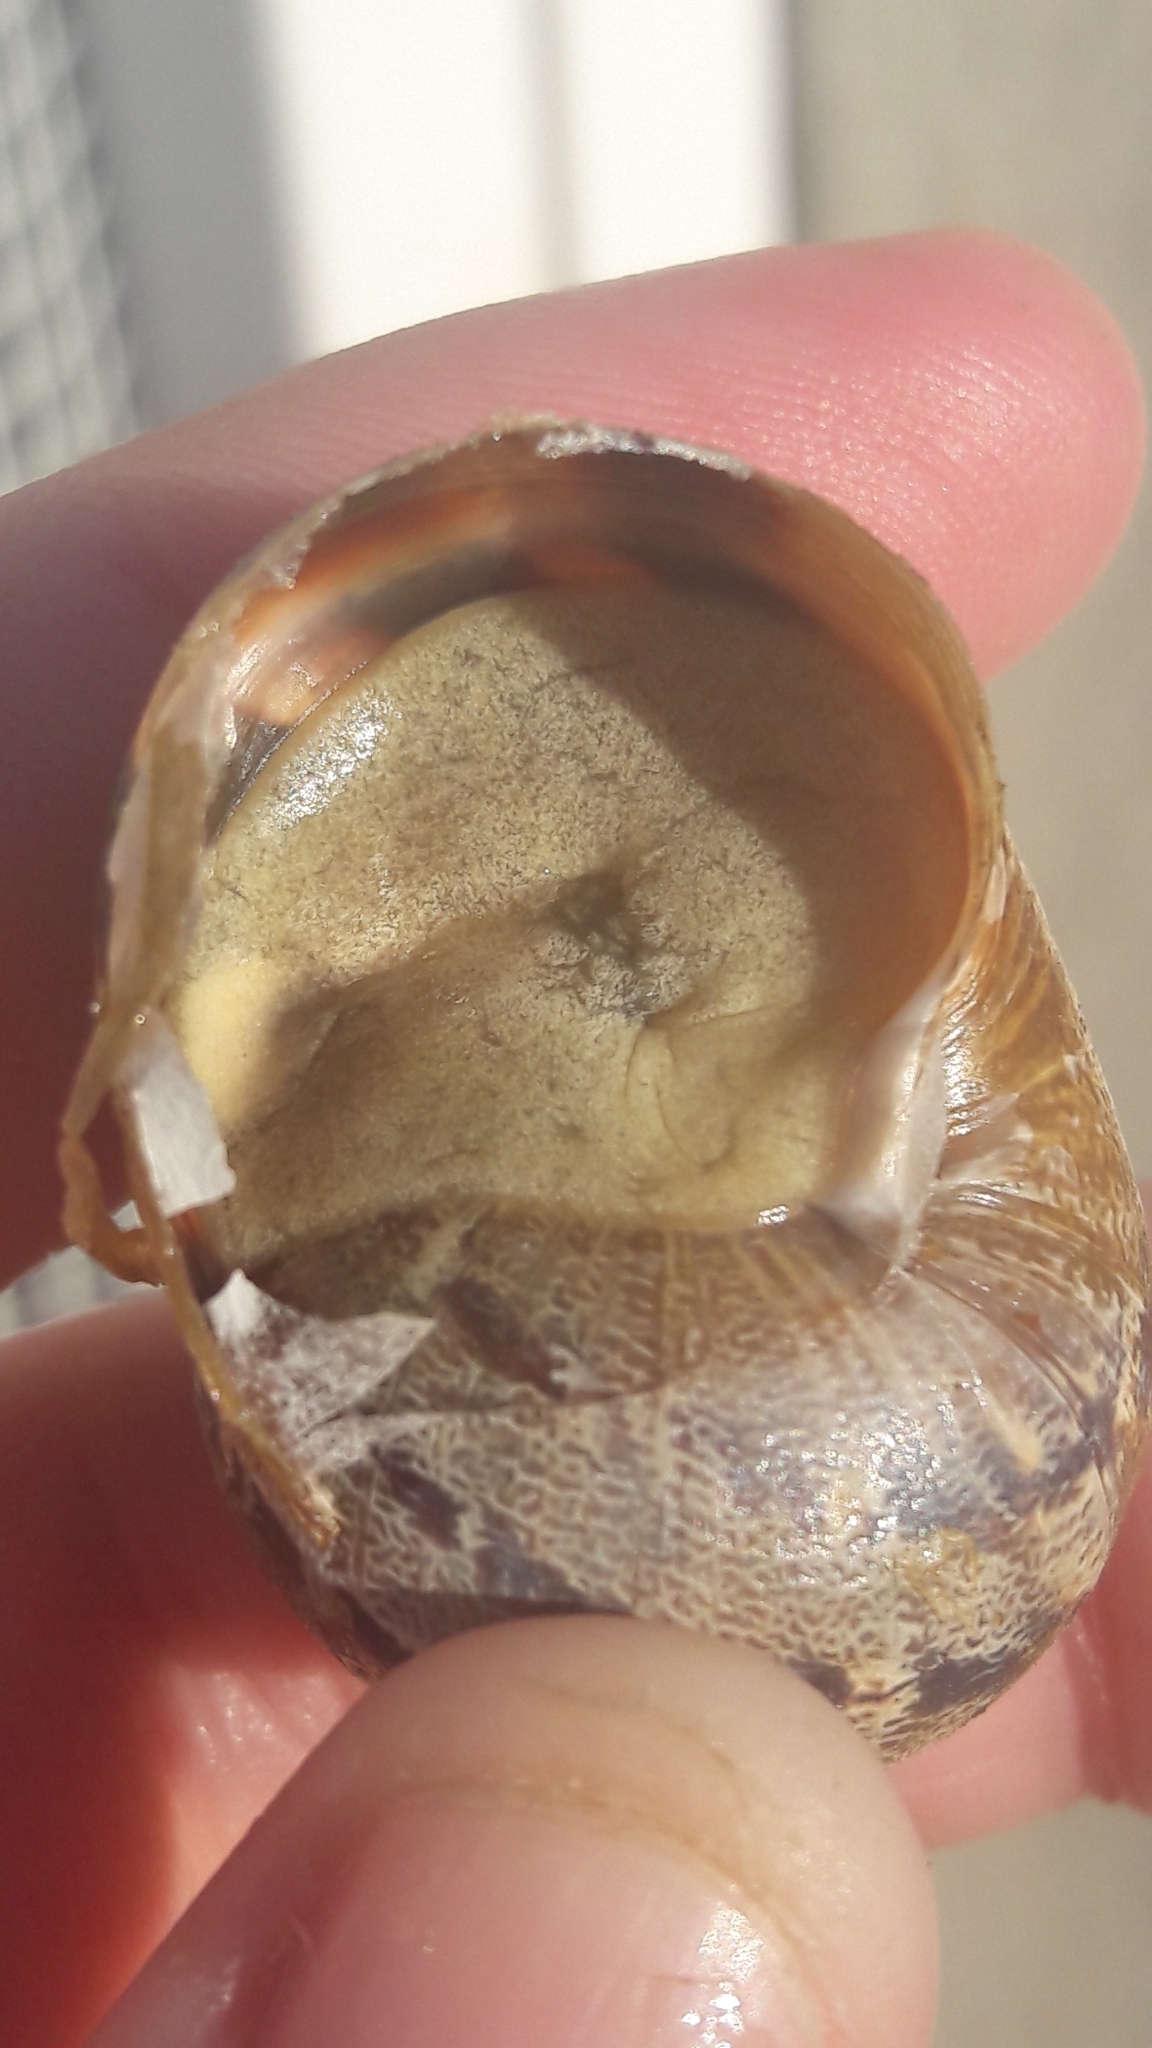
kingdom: Animalia
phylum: Mollusca
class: Gastropoda
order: Stylommatophora
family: Helicidae
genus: Cornu
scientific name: Cornu aspersum
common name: Brown garden snail
